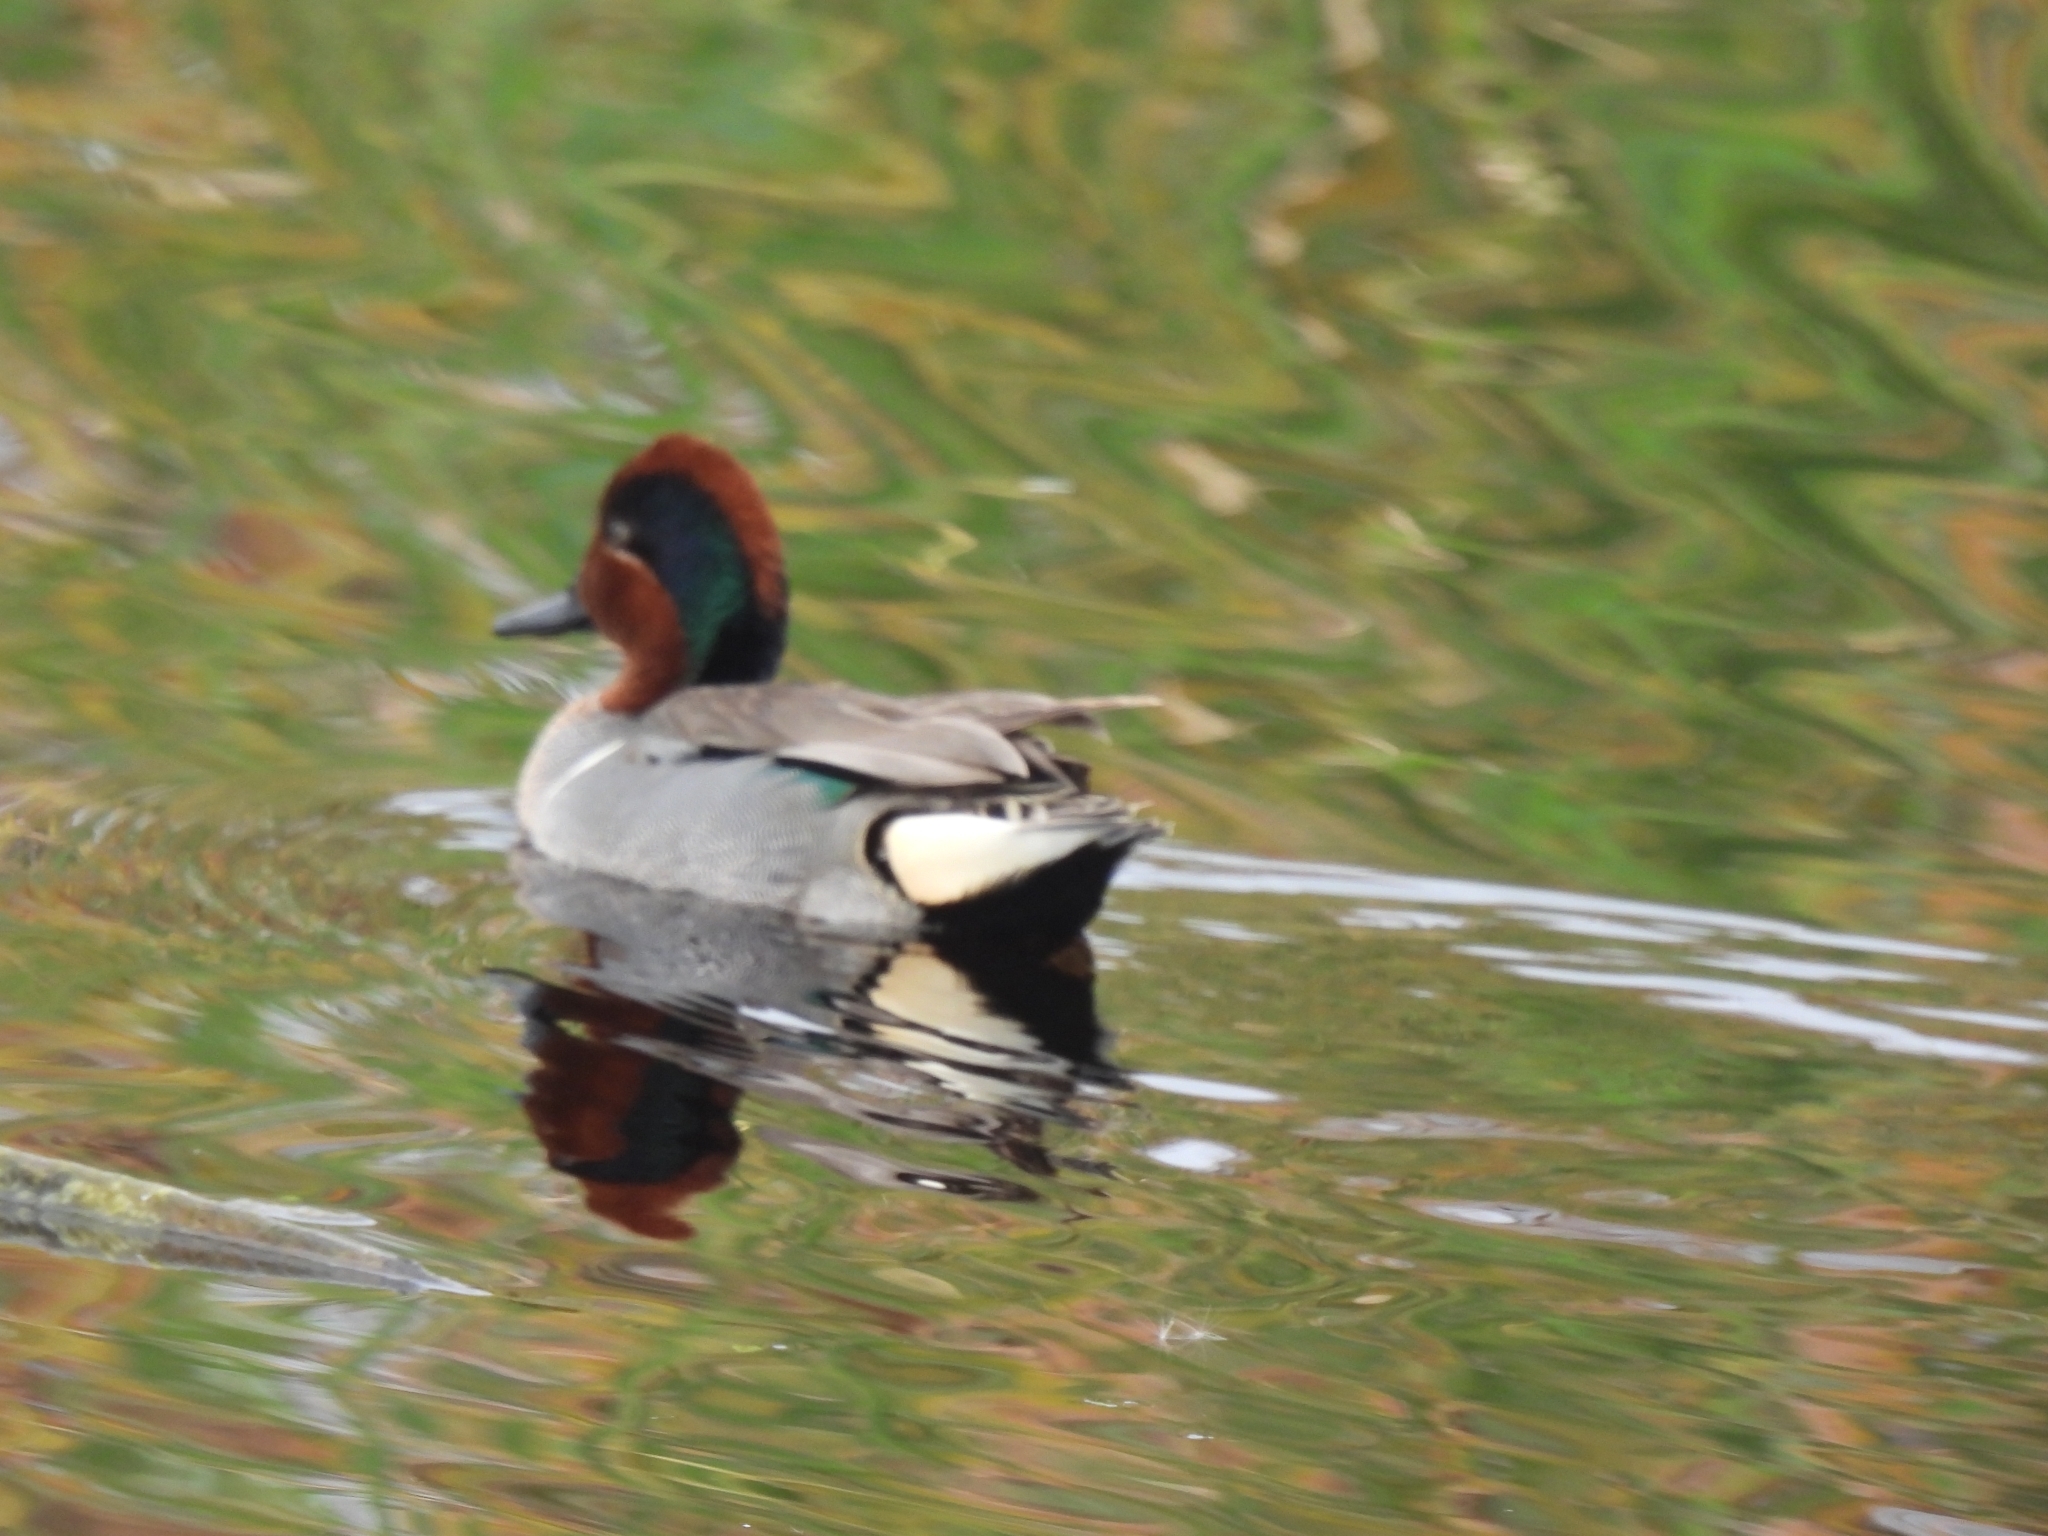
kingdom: Animalia
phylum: Chordata
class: Aves
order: Anseriformes
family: Anatidae
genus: Anas
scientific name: Anas crecca
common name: Eurasian teal
